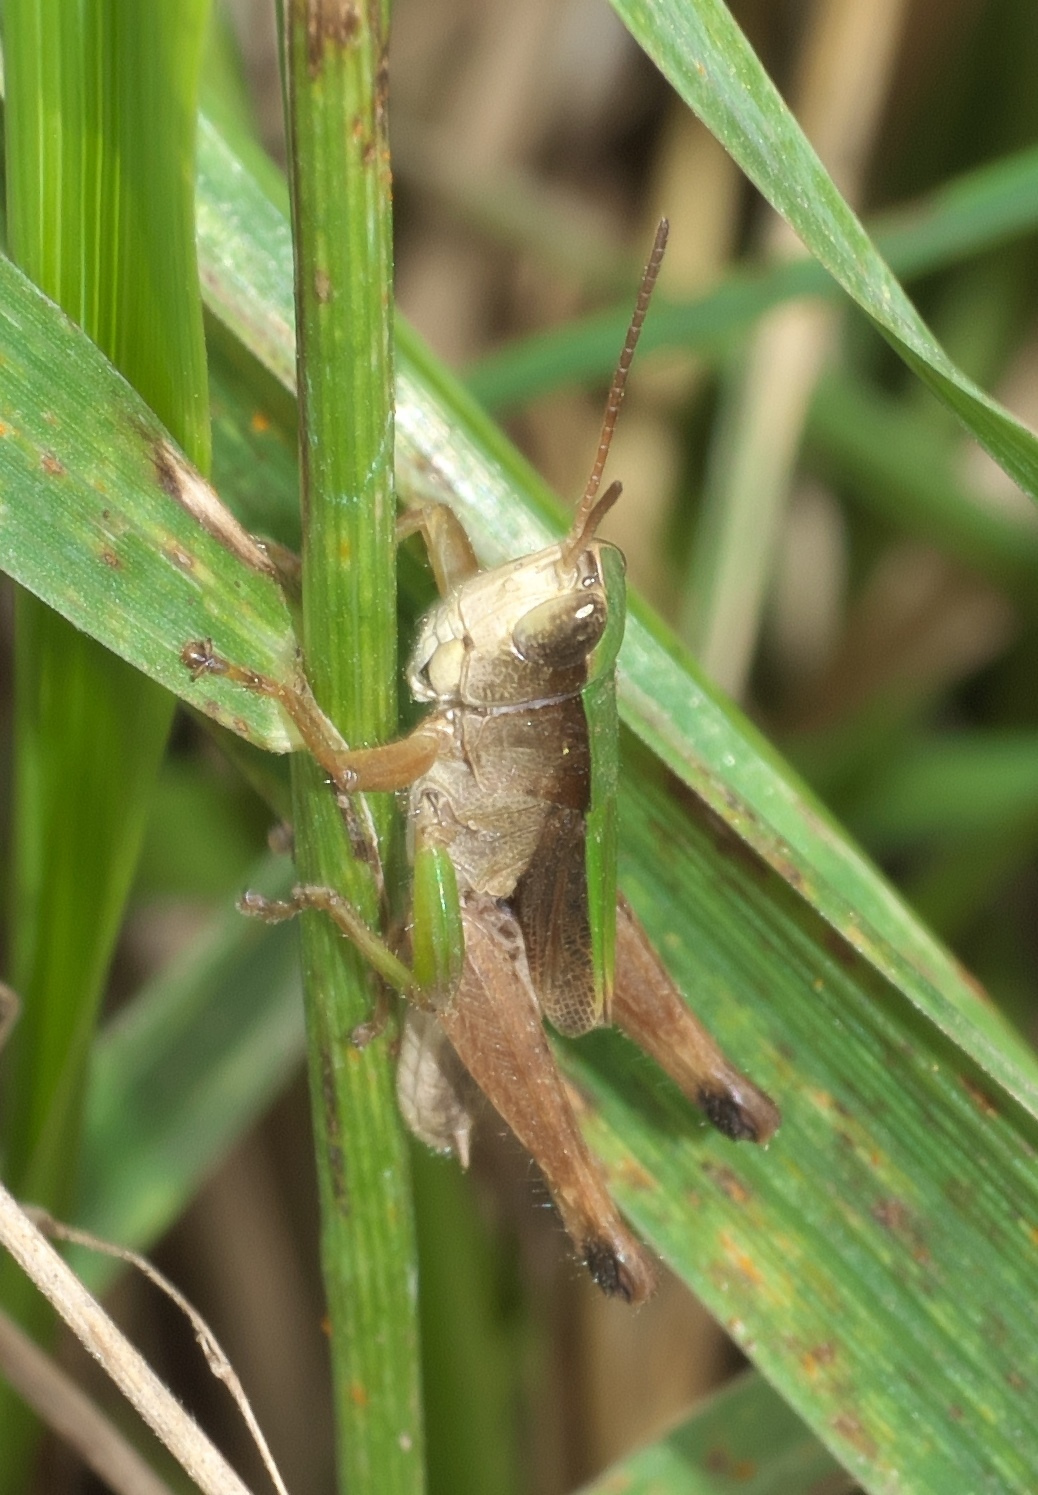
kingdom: Animalia
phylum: Arthropoda
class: Insecta
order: Orthoptera
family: Acrididae
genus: Dichromorpha
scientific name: Dichromorpha viridis
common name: Short-winged green grasshopper
